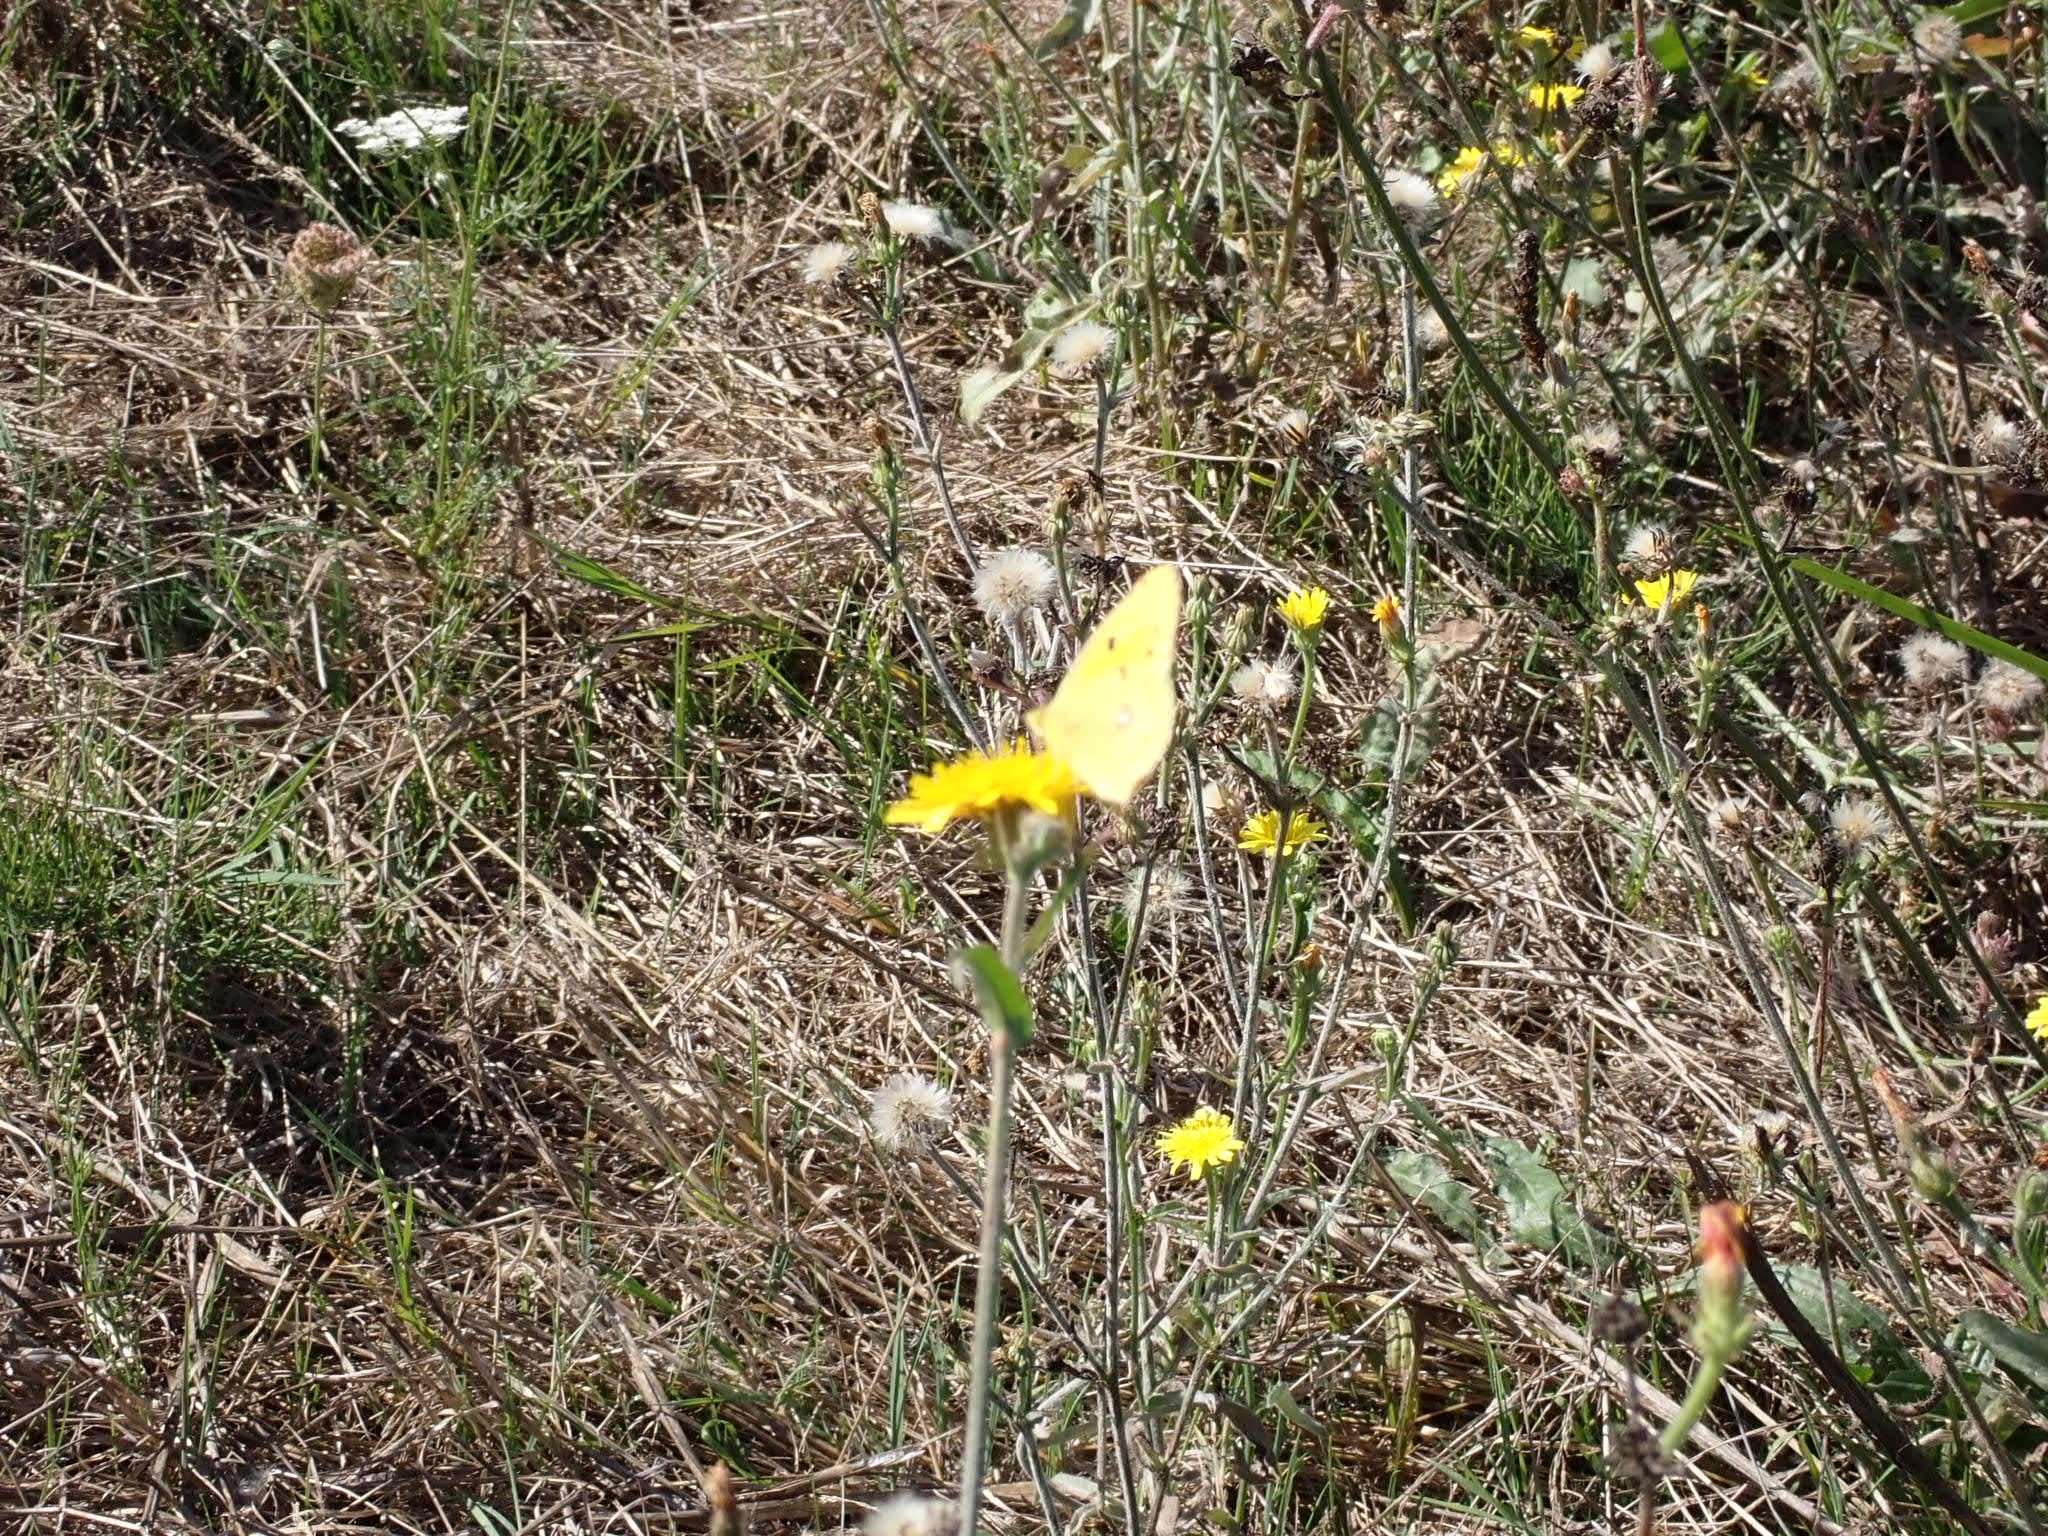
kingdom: Animalia
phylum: Arthropoda
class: Insecta
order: Lepidoptera
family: Pieridae
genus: Colias
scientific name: Colias croceus
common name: Clouded yellow
